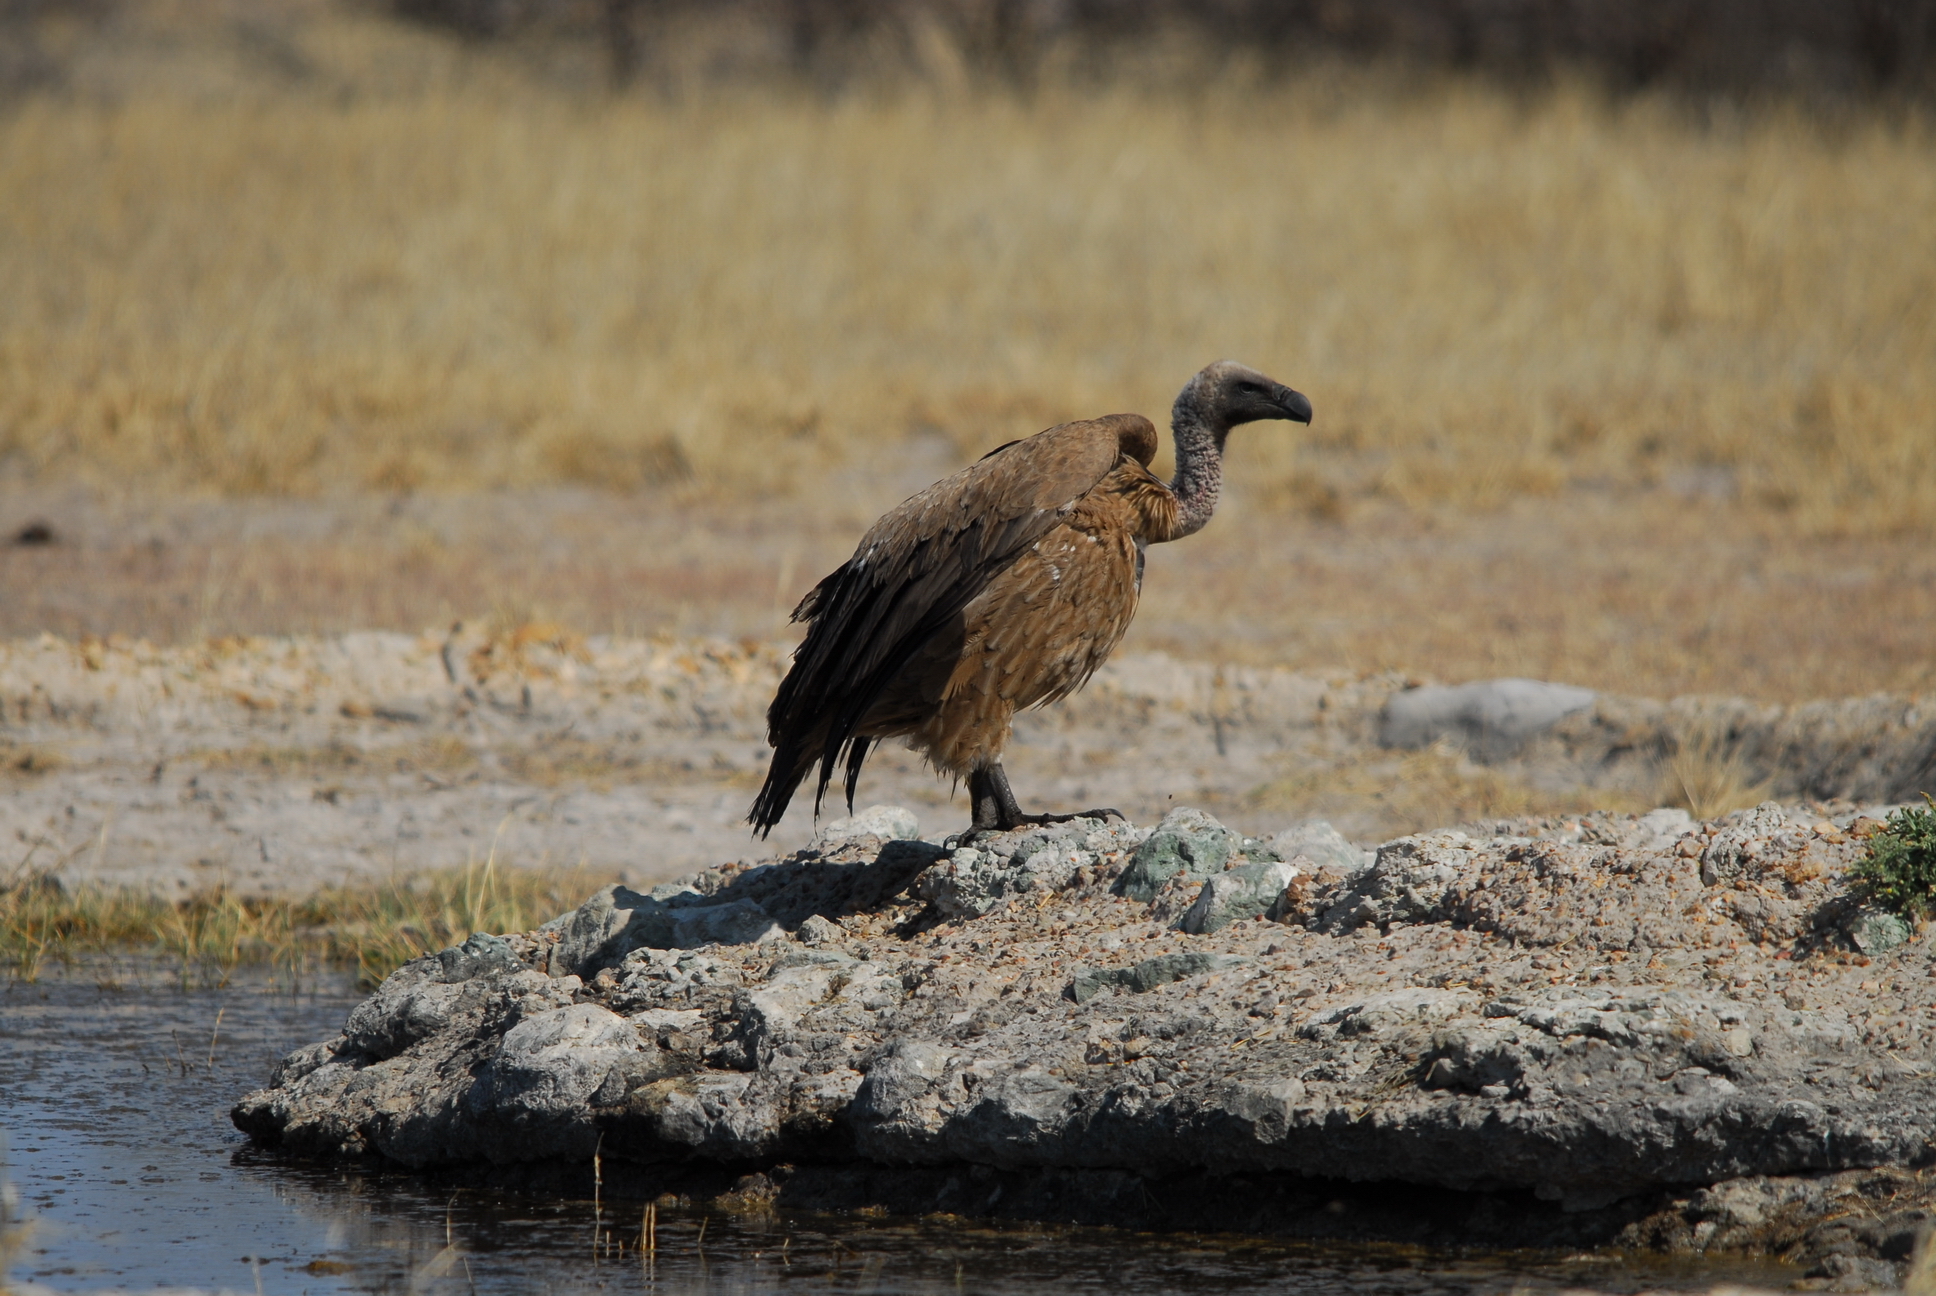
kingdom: Animalia
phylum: Chordata
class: Aves
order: Accipitriformes
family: Accipitridae
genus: Gyps
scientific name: Gyps africanus
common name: White-backed vulture
